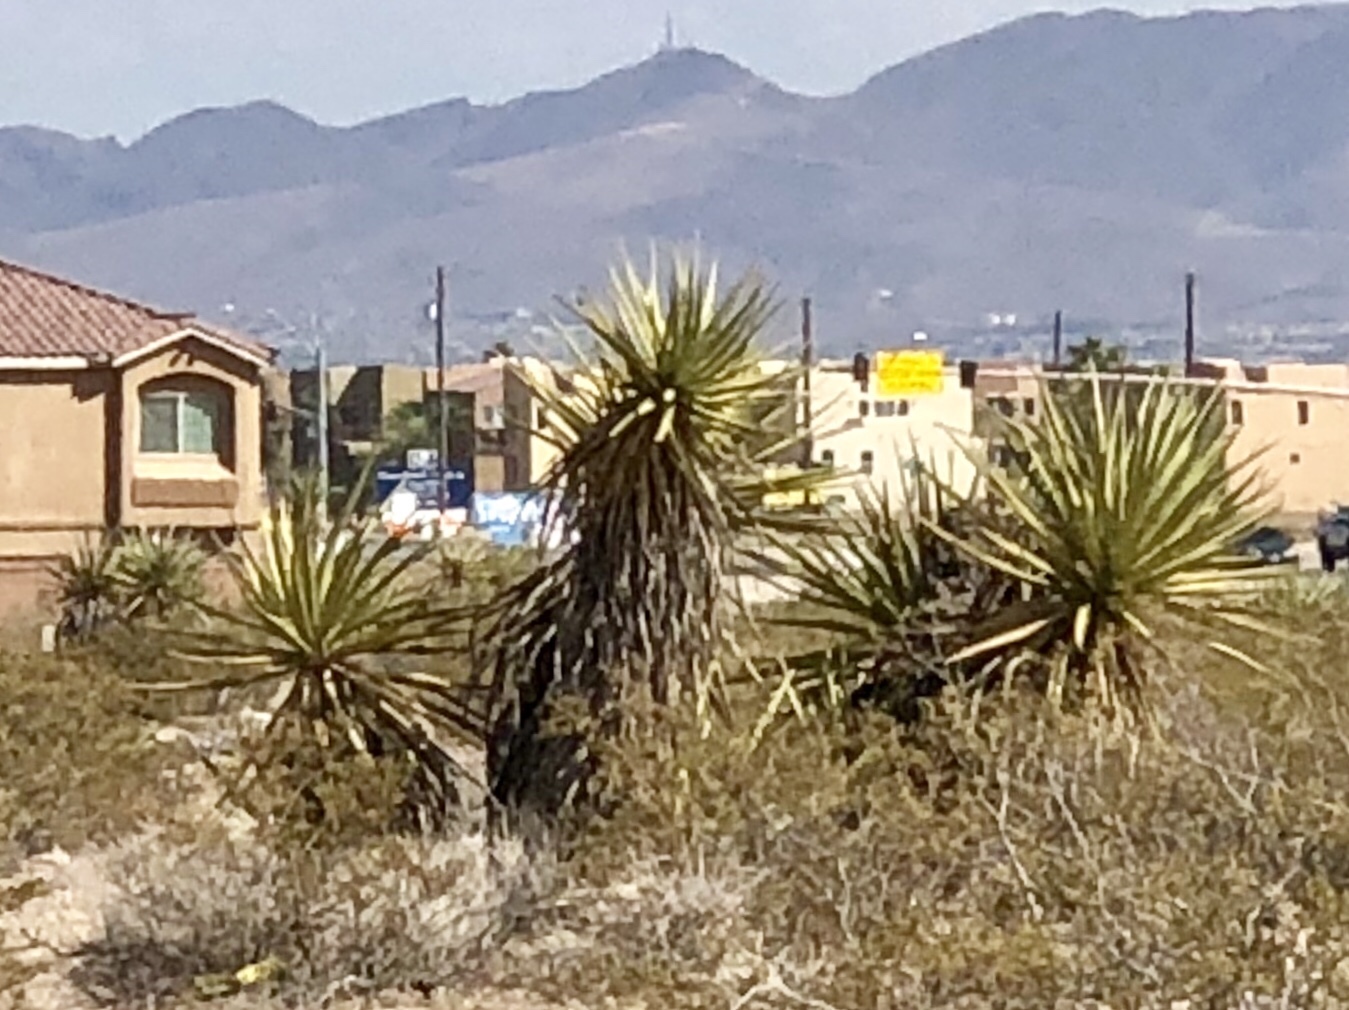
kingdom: Plantae
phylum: Tracheophyta
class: Liliopsida
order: Asparagales
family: Asparagaceae
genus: Yucca
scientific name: Yucca schidigera
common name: Mojave yucca
